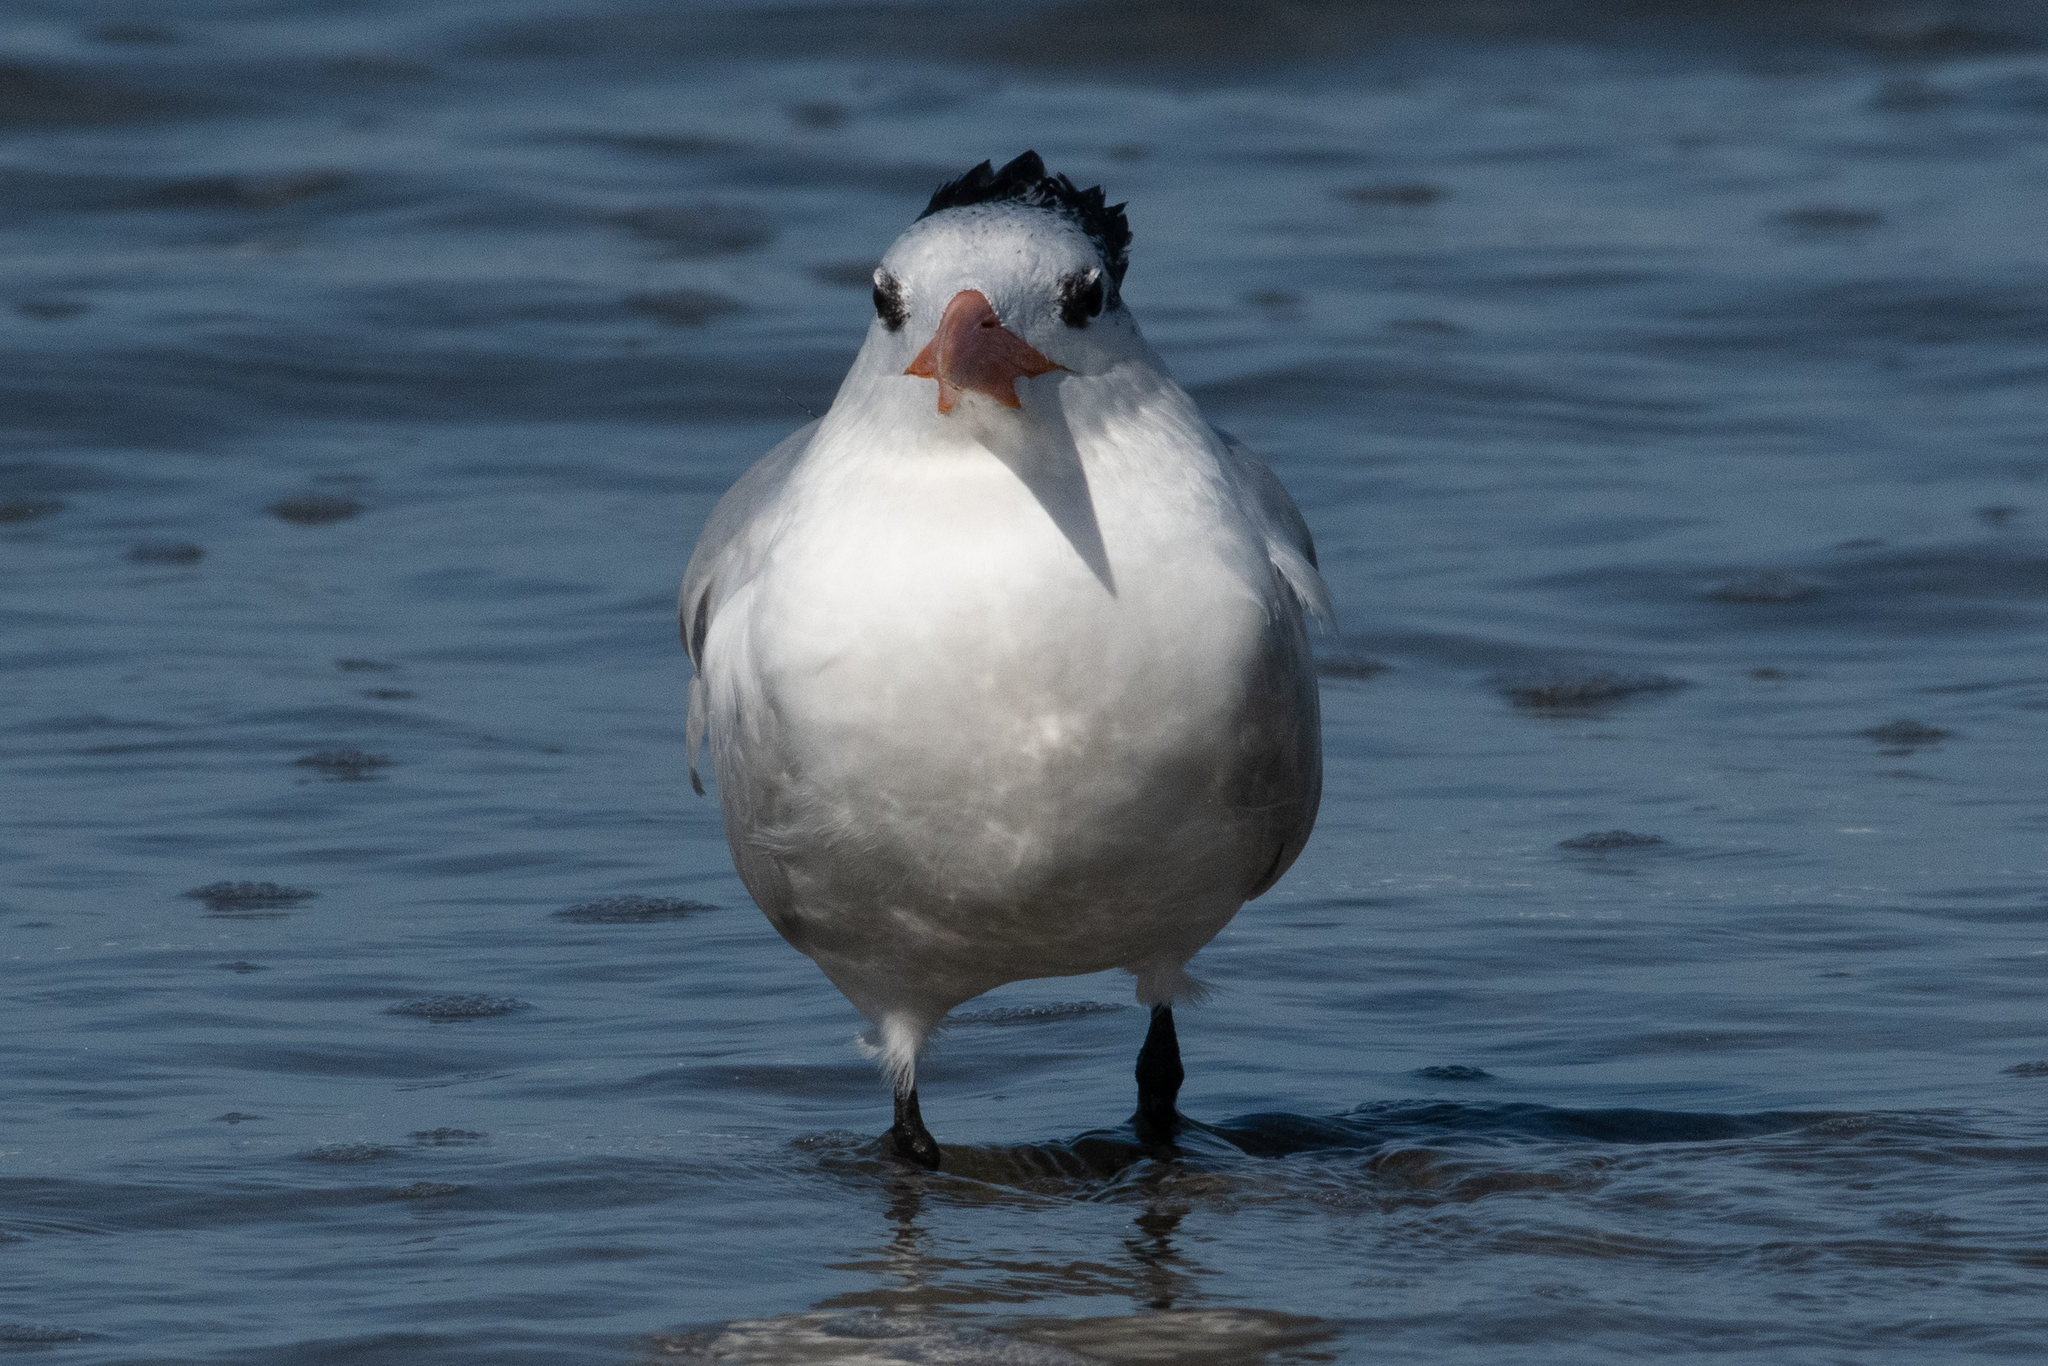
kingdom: Animalia
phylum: Chordata
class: Aves
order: Charadriiformes
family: Laridae
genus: Thalasseus
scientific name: Thalasseus maximus
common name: Royal tern
